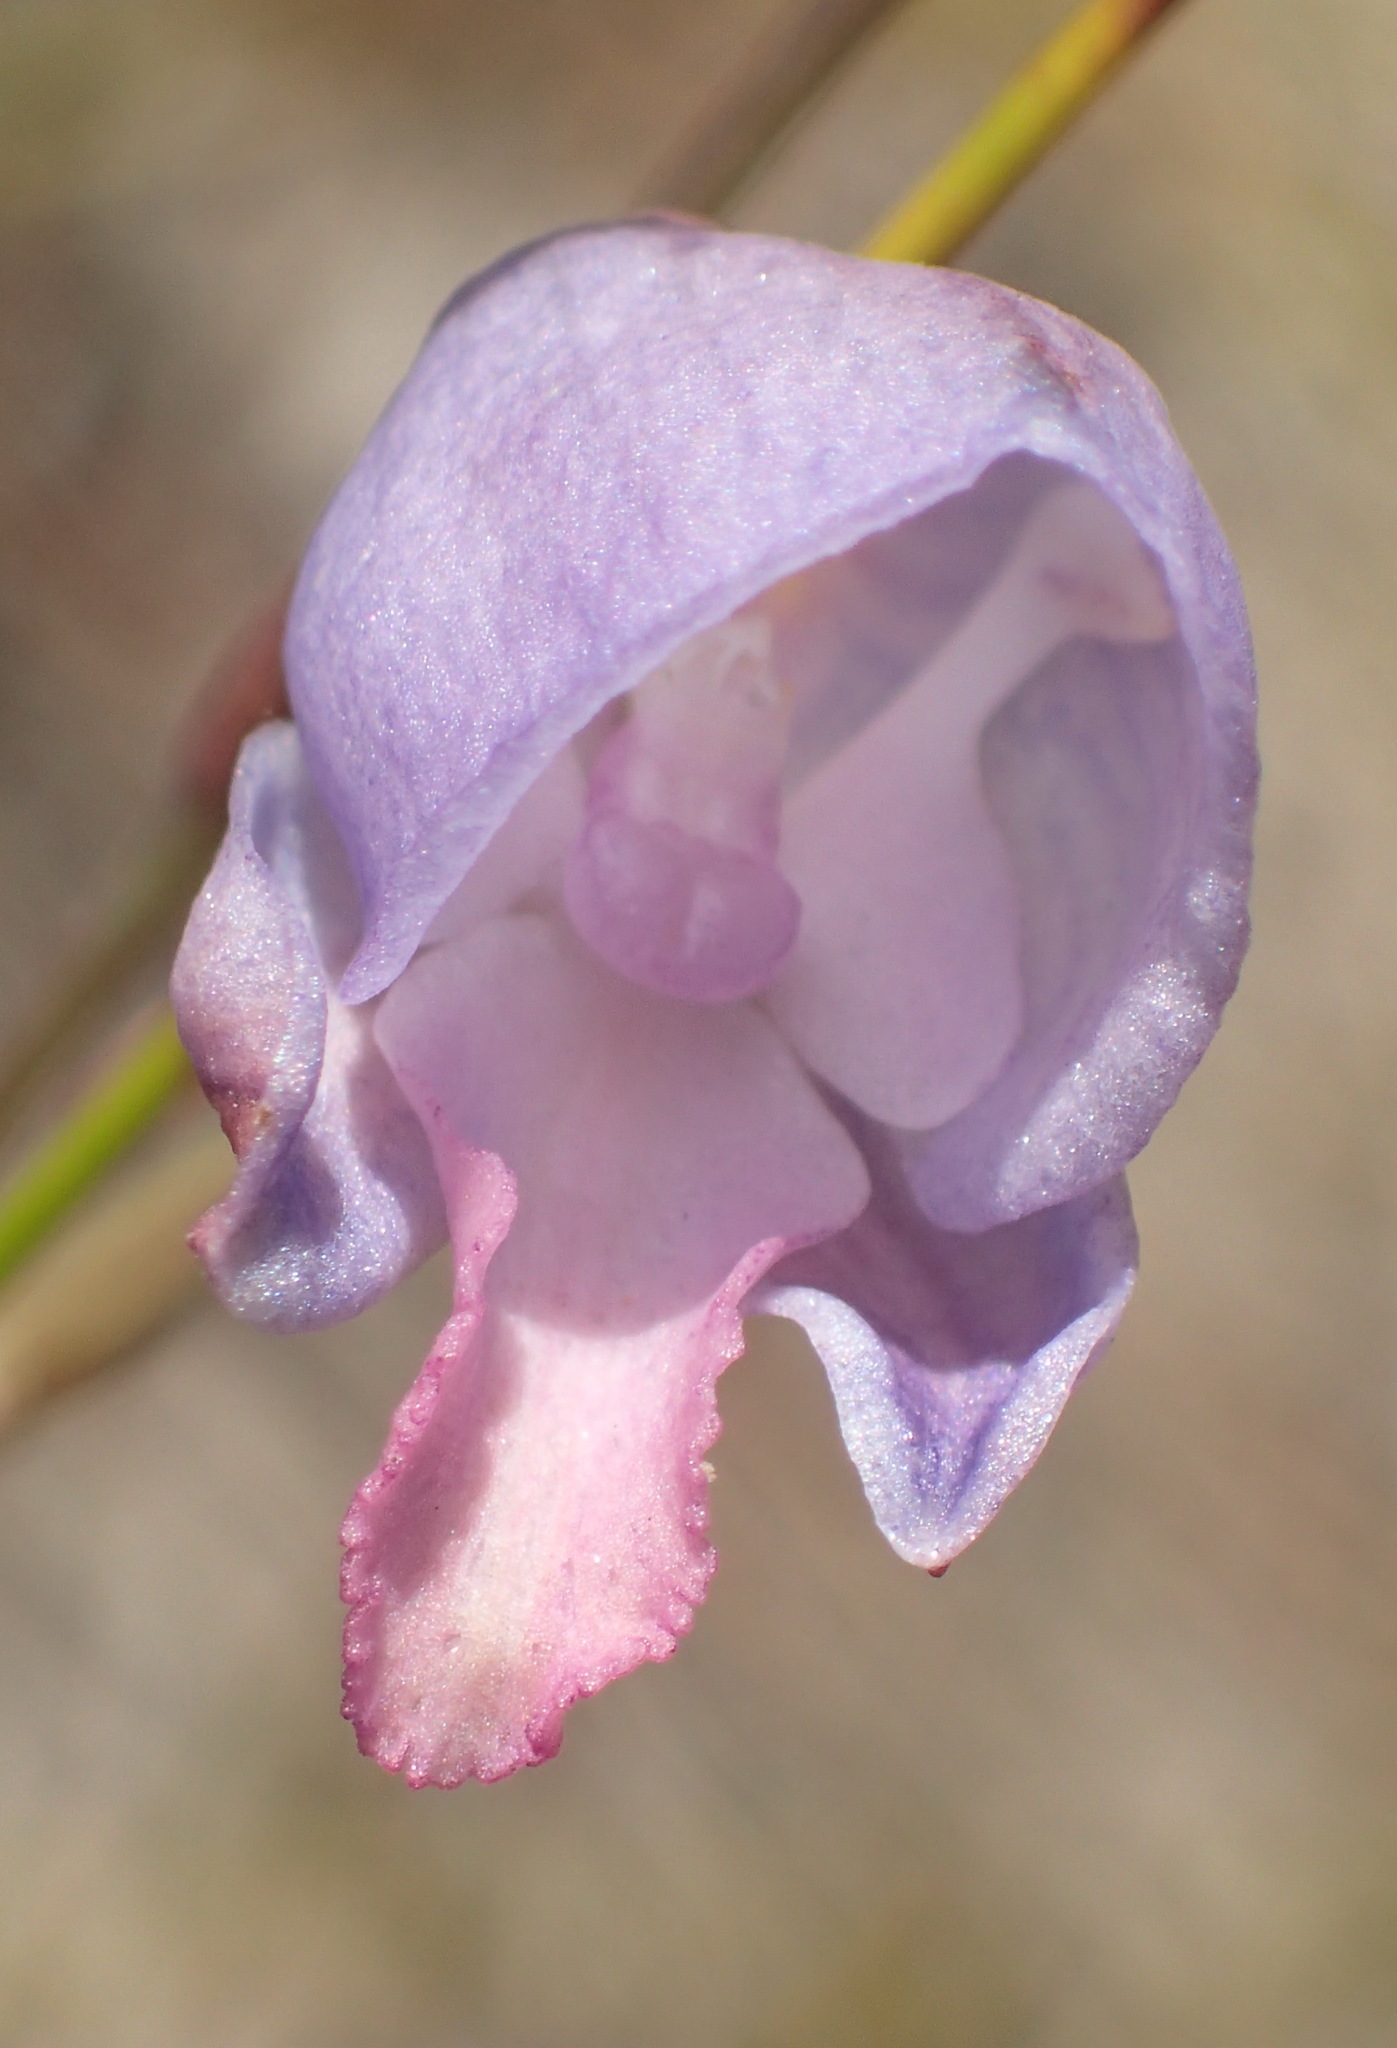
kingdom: Plantae
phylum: Tracheophyta
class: Liliopsida
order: Asparagales
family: Orchidaceae
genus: Disa
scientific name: Disa hians
